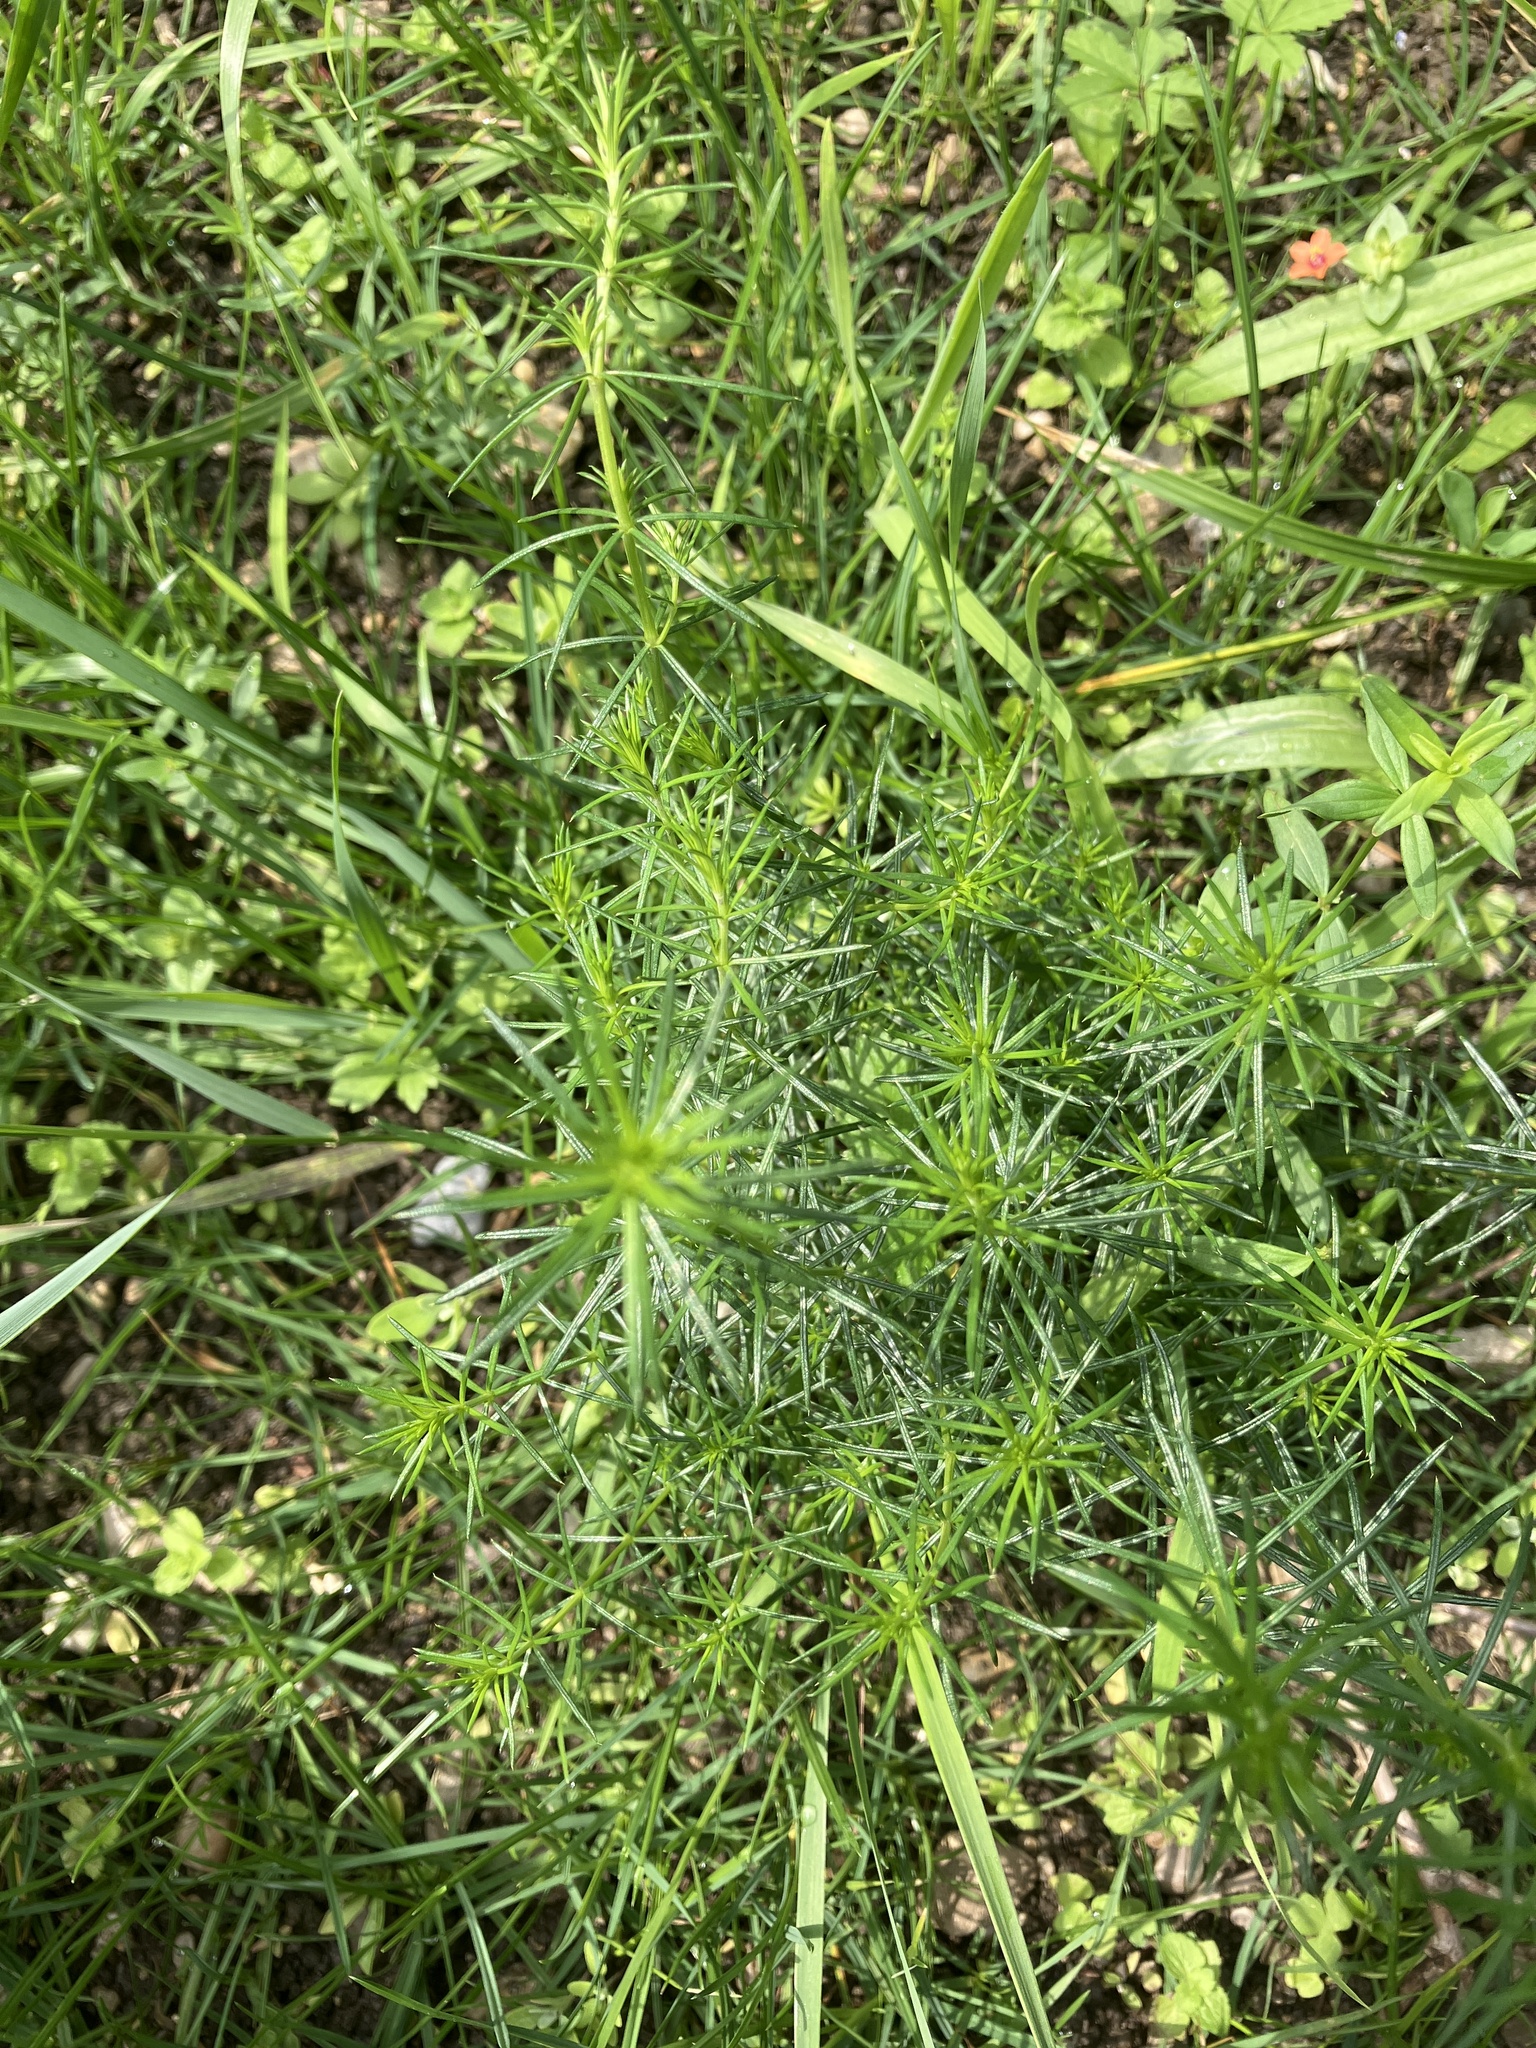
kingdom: Plantae
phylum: Tracheophyta
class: Magnoliopsida
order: Gentianales
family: Rubiaceae
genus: Galium
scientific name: Galium verum
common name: Lady's bedstraw
